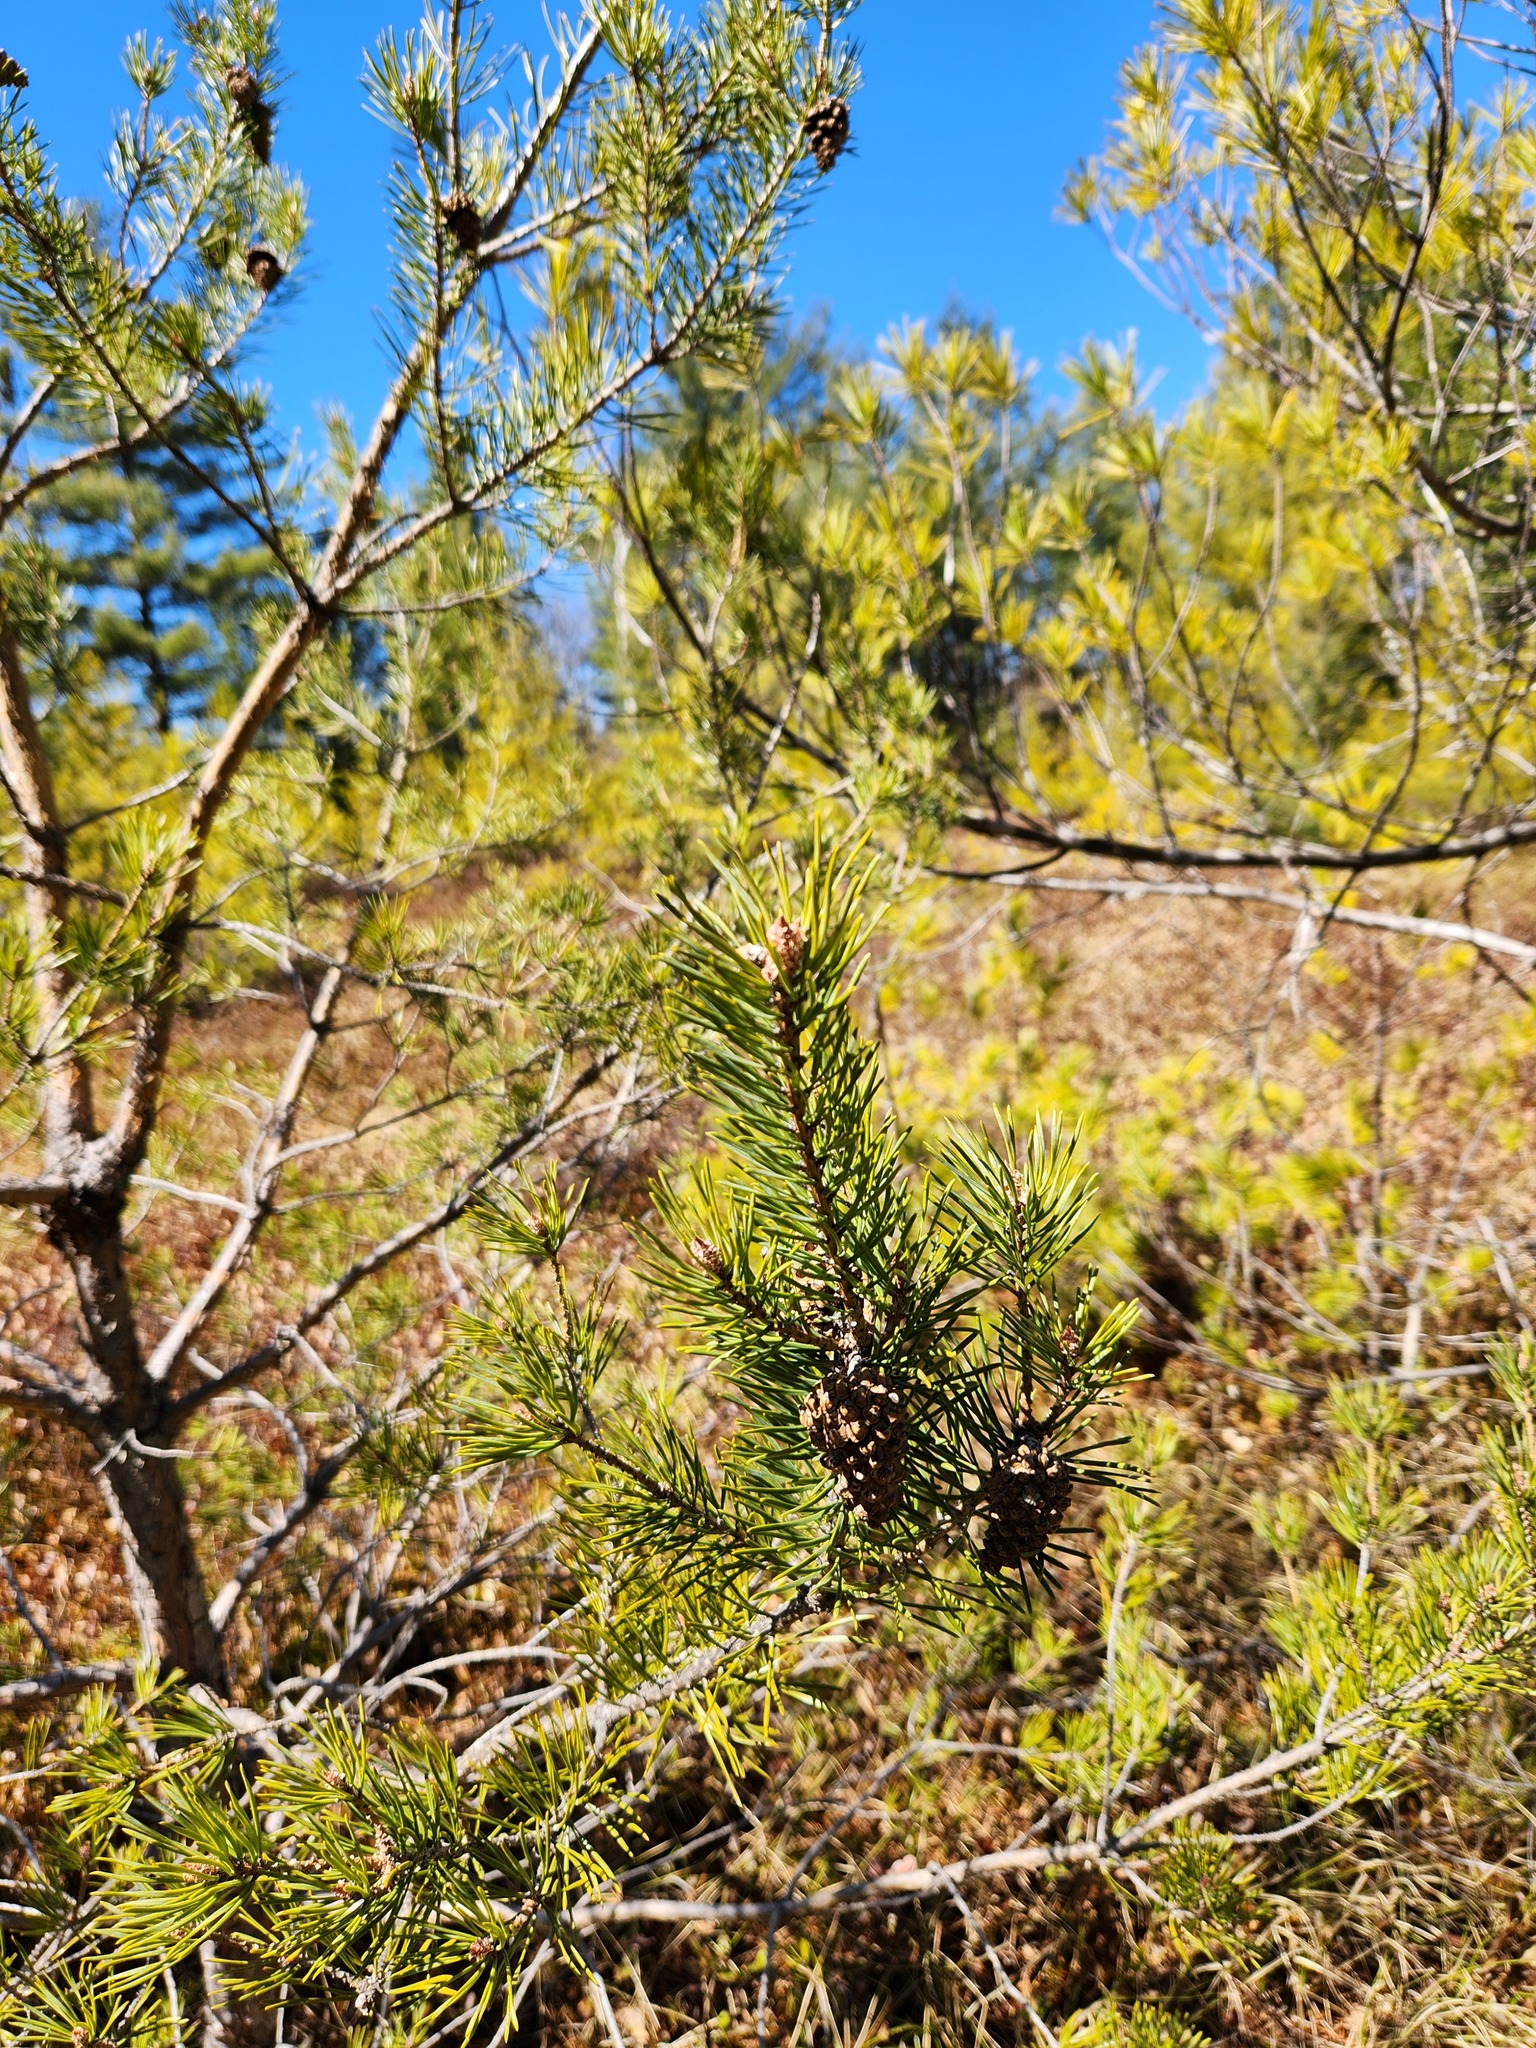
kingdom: Plantae
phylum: Tracheophyta
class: Pinopsida
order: Pinales
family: Pinaceae
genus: Pinus
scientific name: Pinus sylvestris
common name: Scots pine
